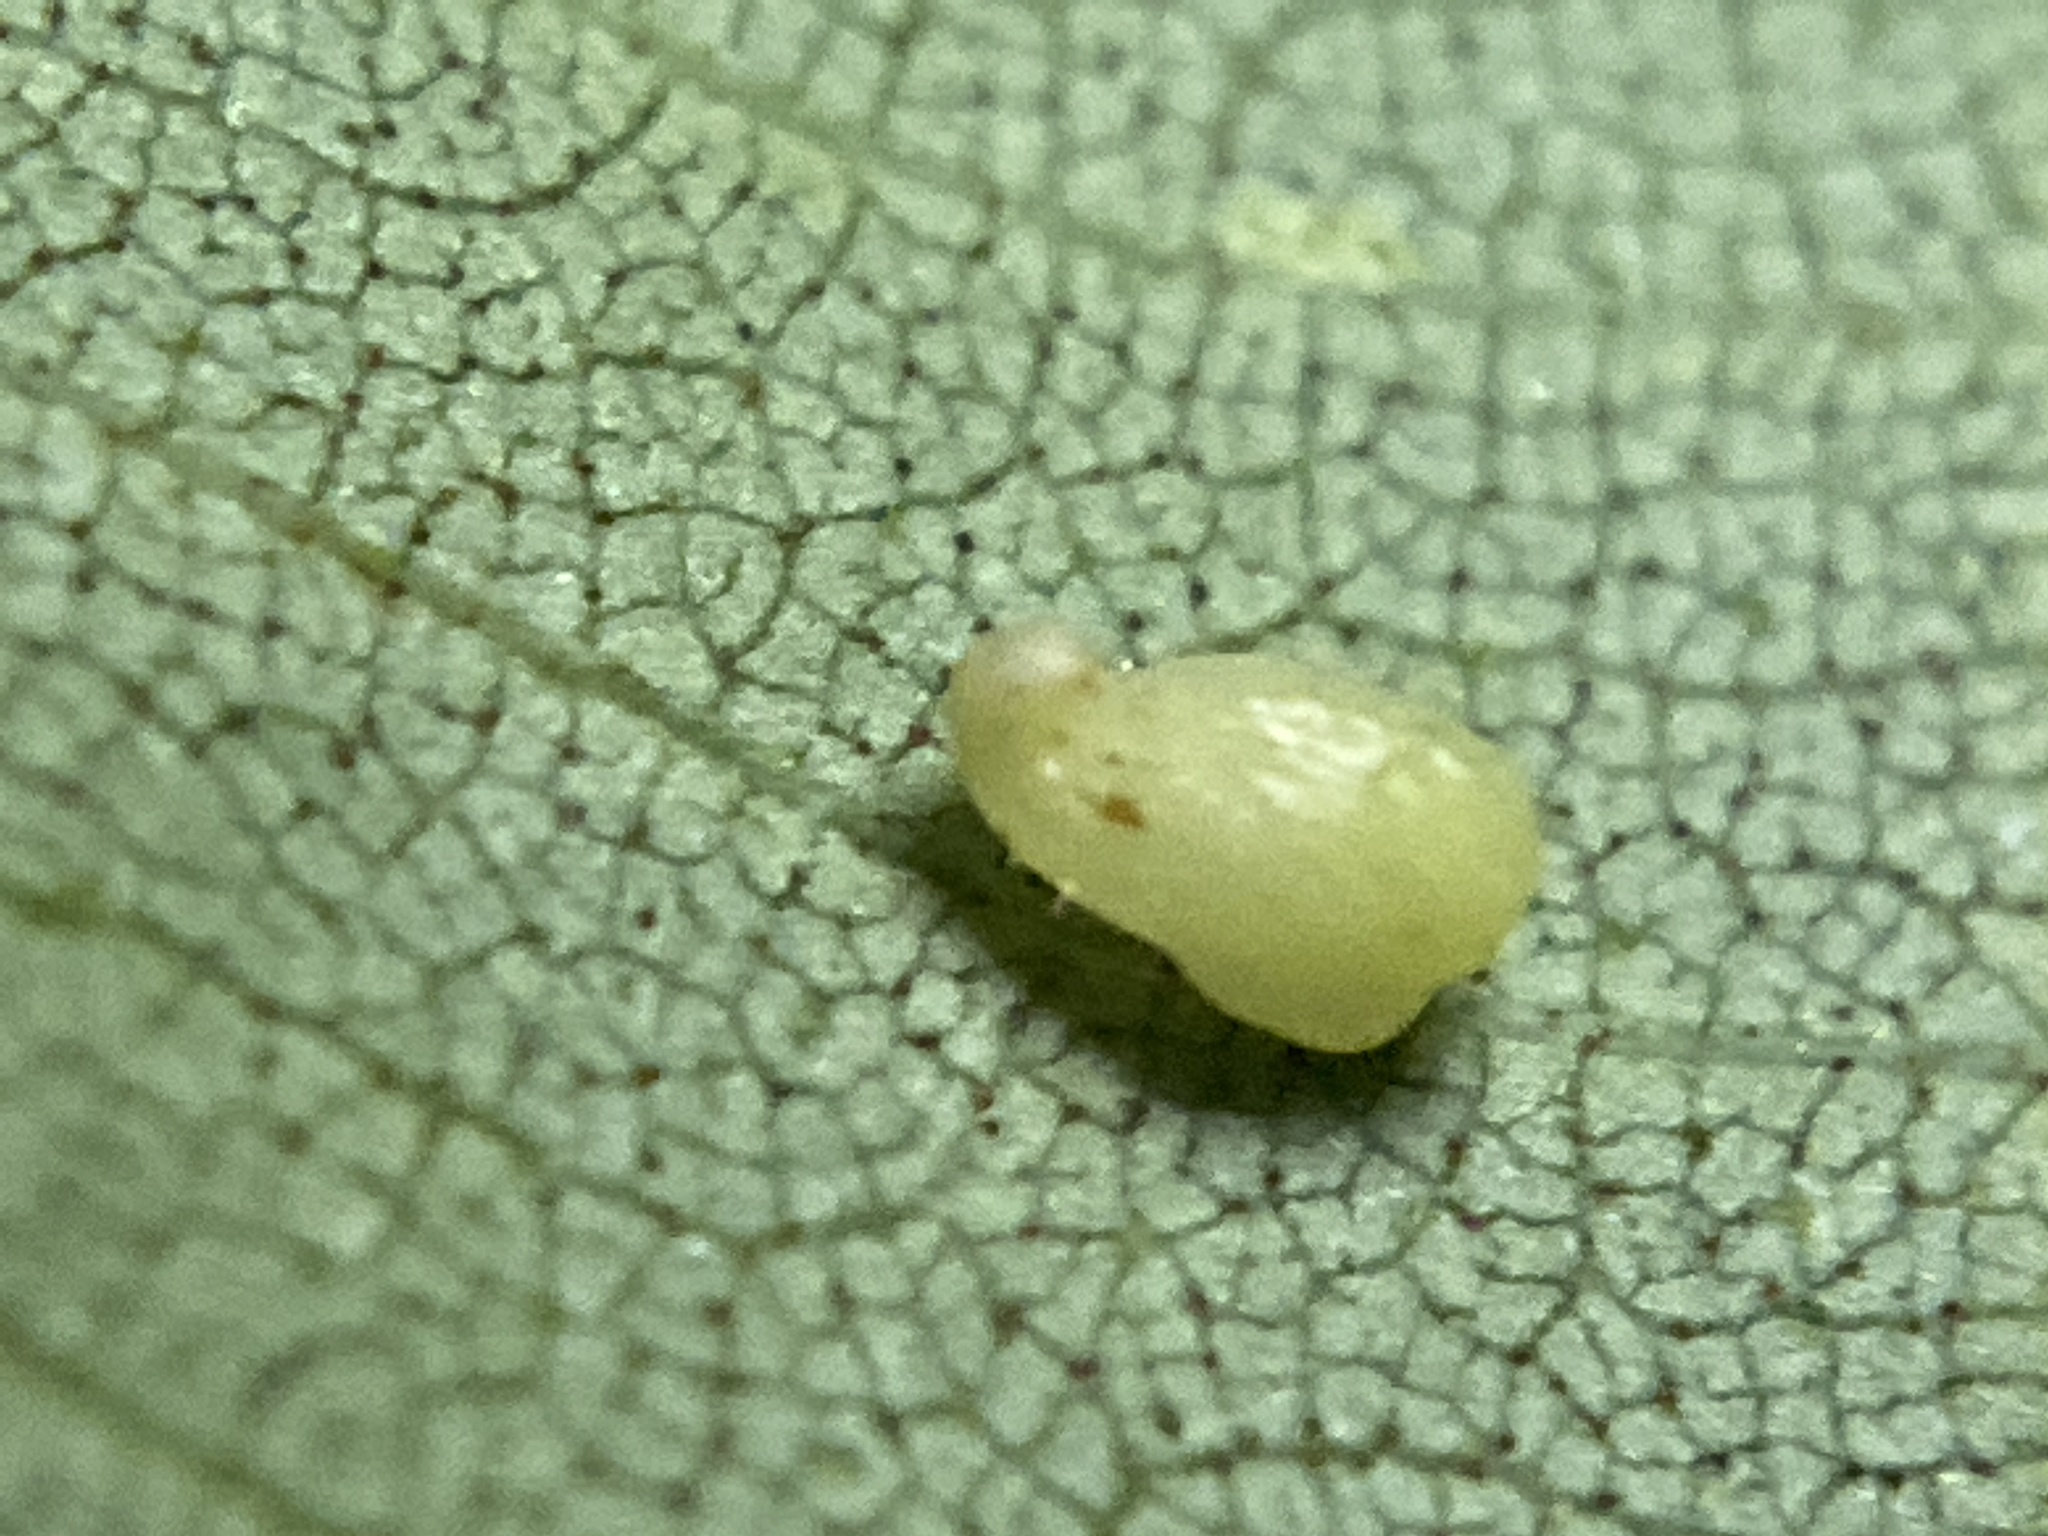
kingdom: Animalia
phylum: Arthropoda
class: Insecta
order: Diptera
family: Cecidomyiidae
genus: Caryomyia
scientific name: Caryomyia eumaris
